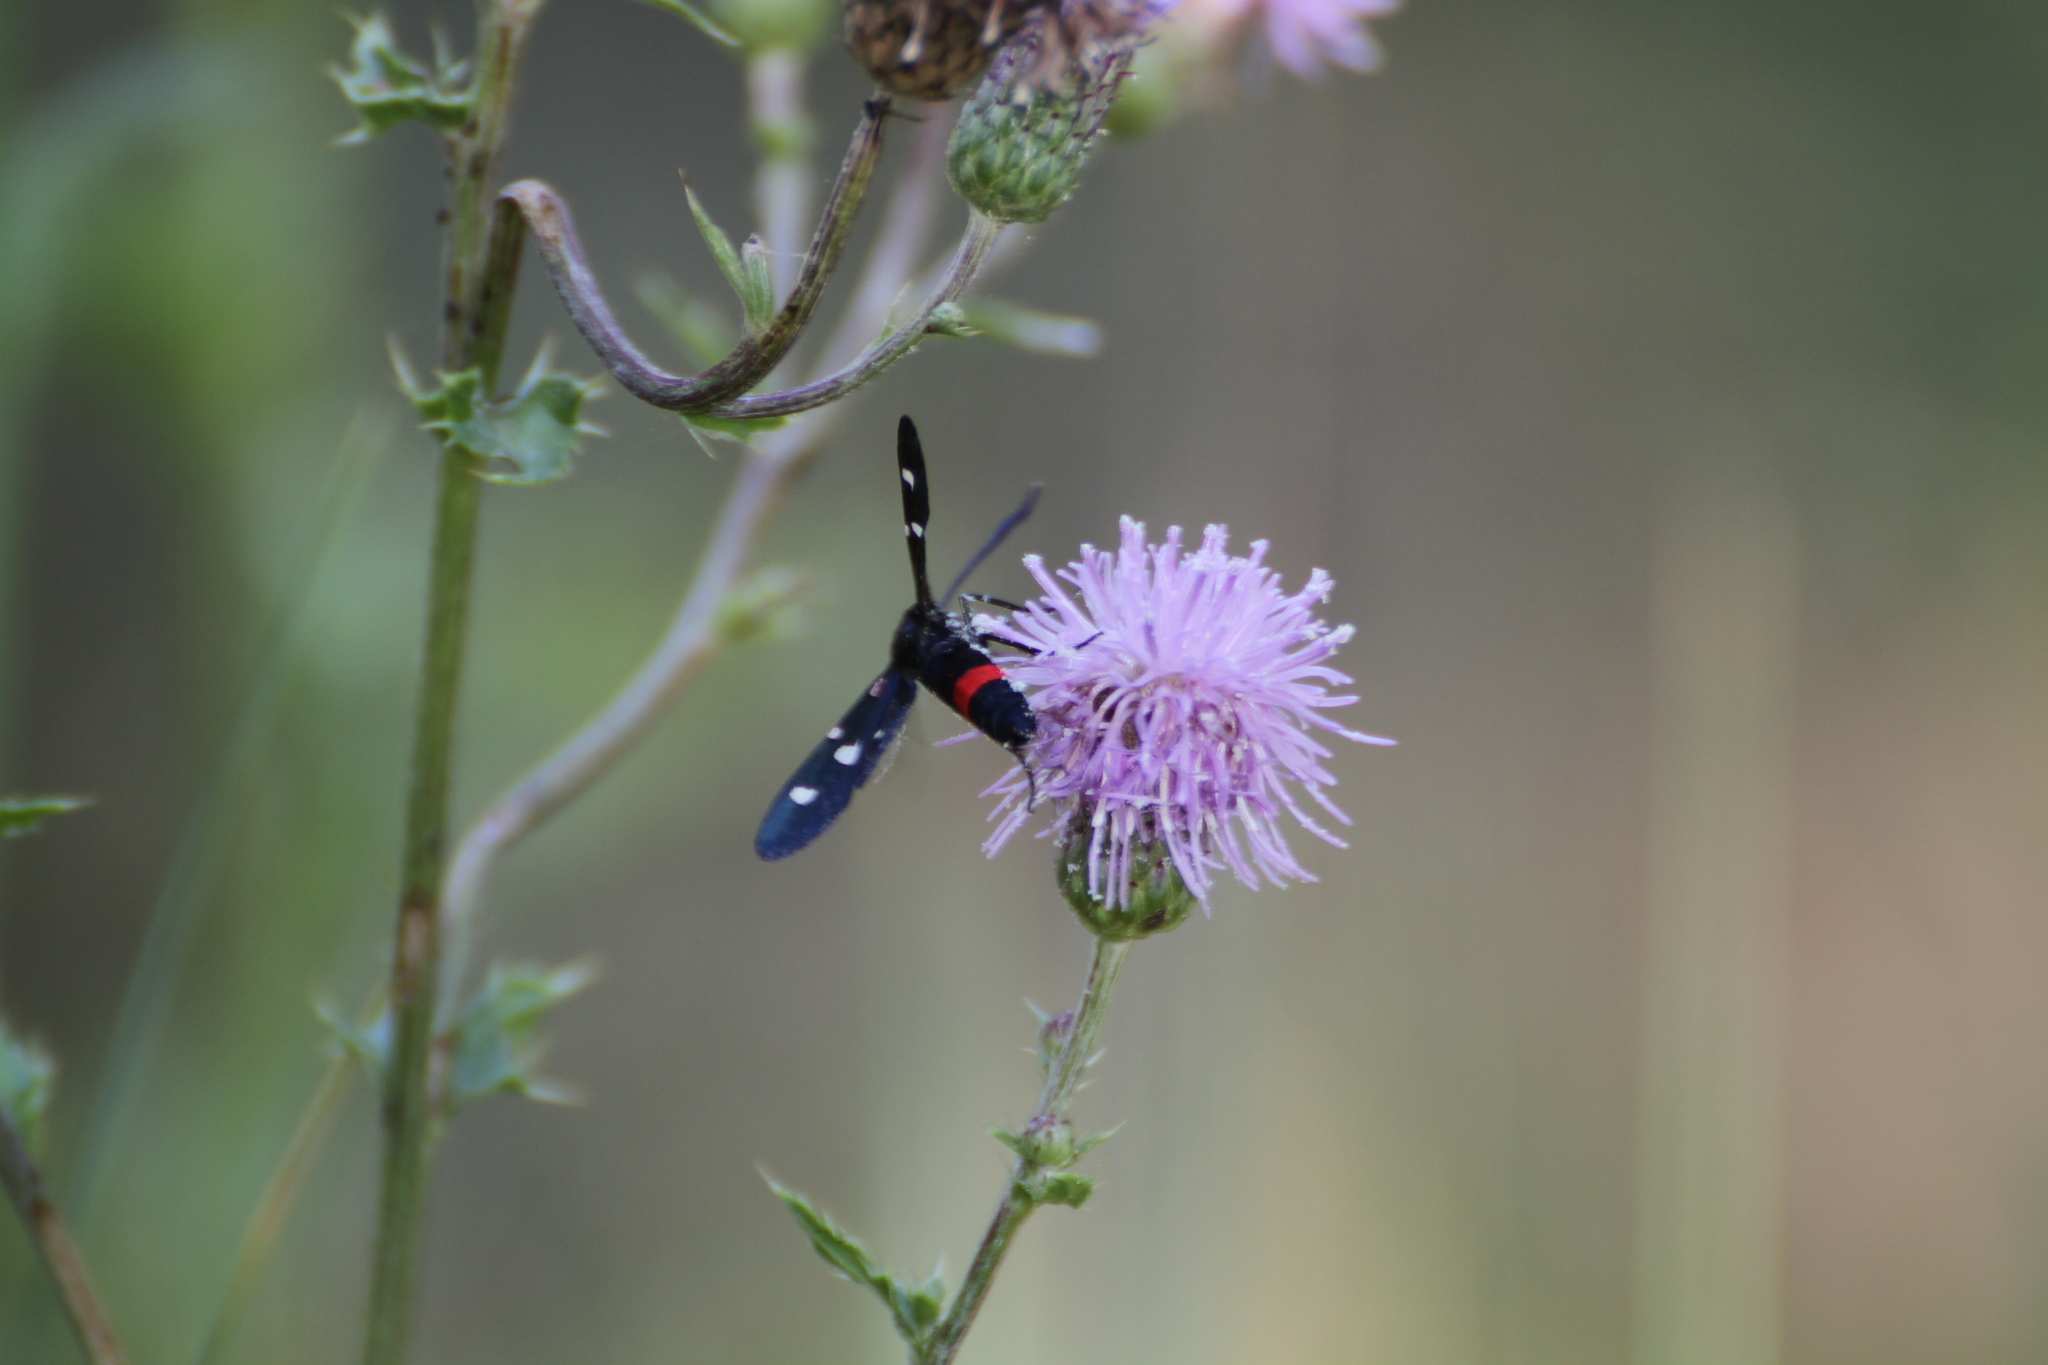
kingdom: Animalia
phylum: Arthropoda
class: Insecta
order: Lepidoptera
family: Zygaenidae
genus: Zygaena
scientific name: Zygaena ephialtes
